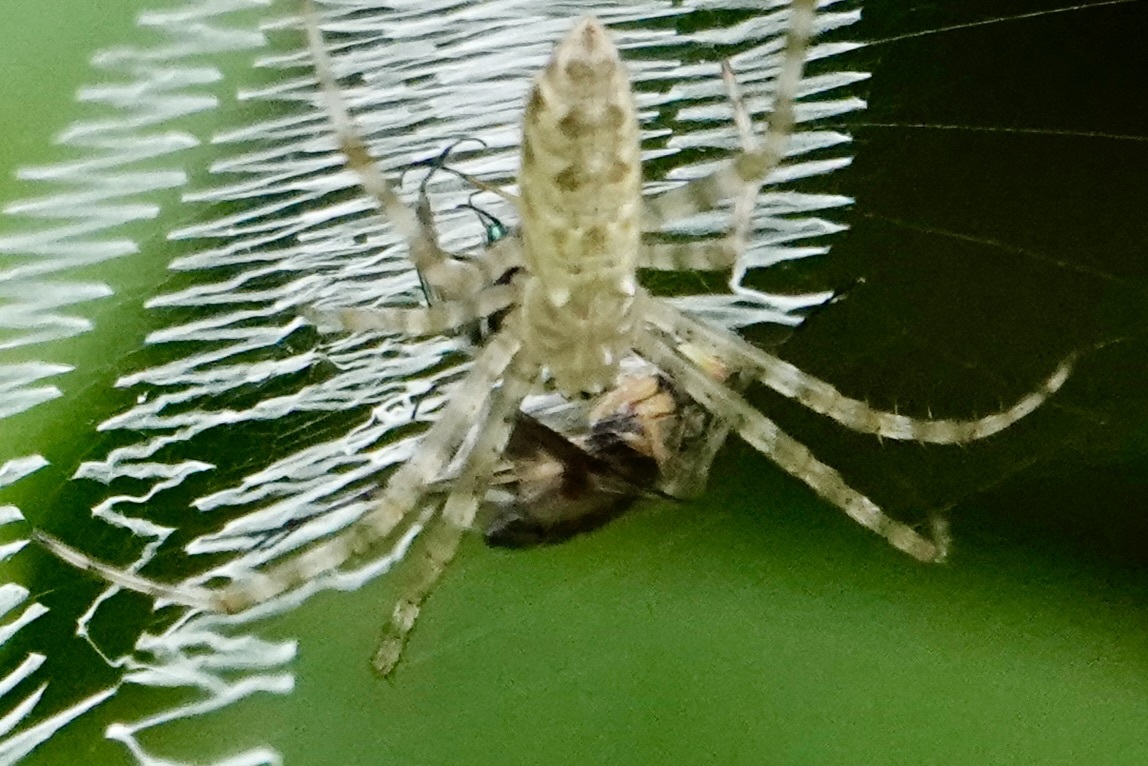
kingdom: Animalia
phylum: Arthropoda
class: Arachnida
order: Araneae
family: Araneidae
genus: Argiope
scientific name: Argiope aurantia
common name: Orb weavers
